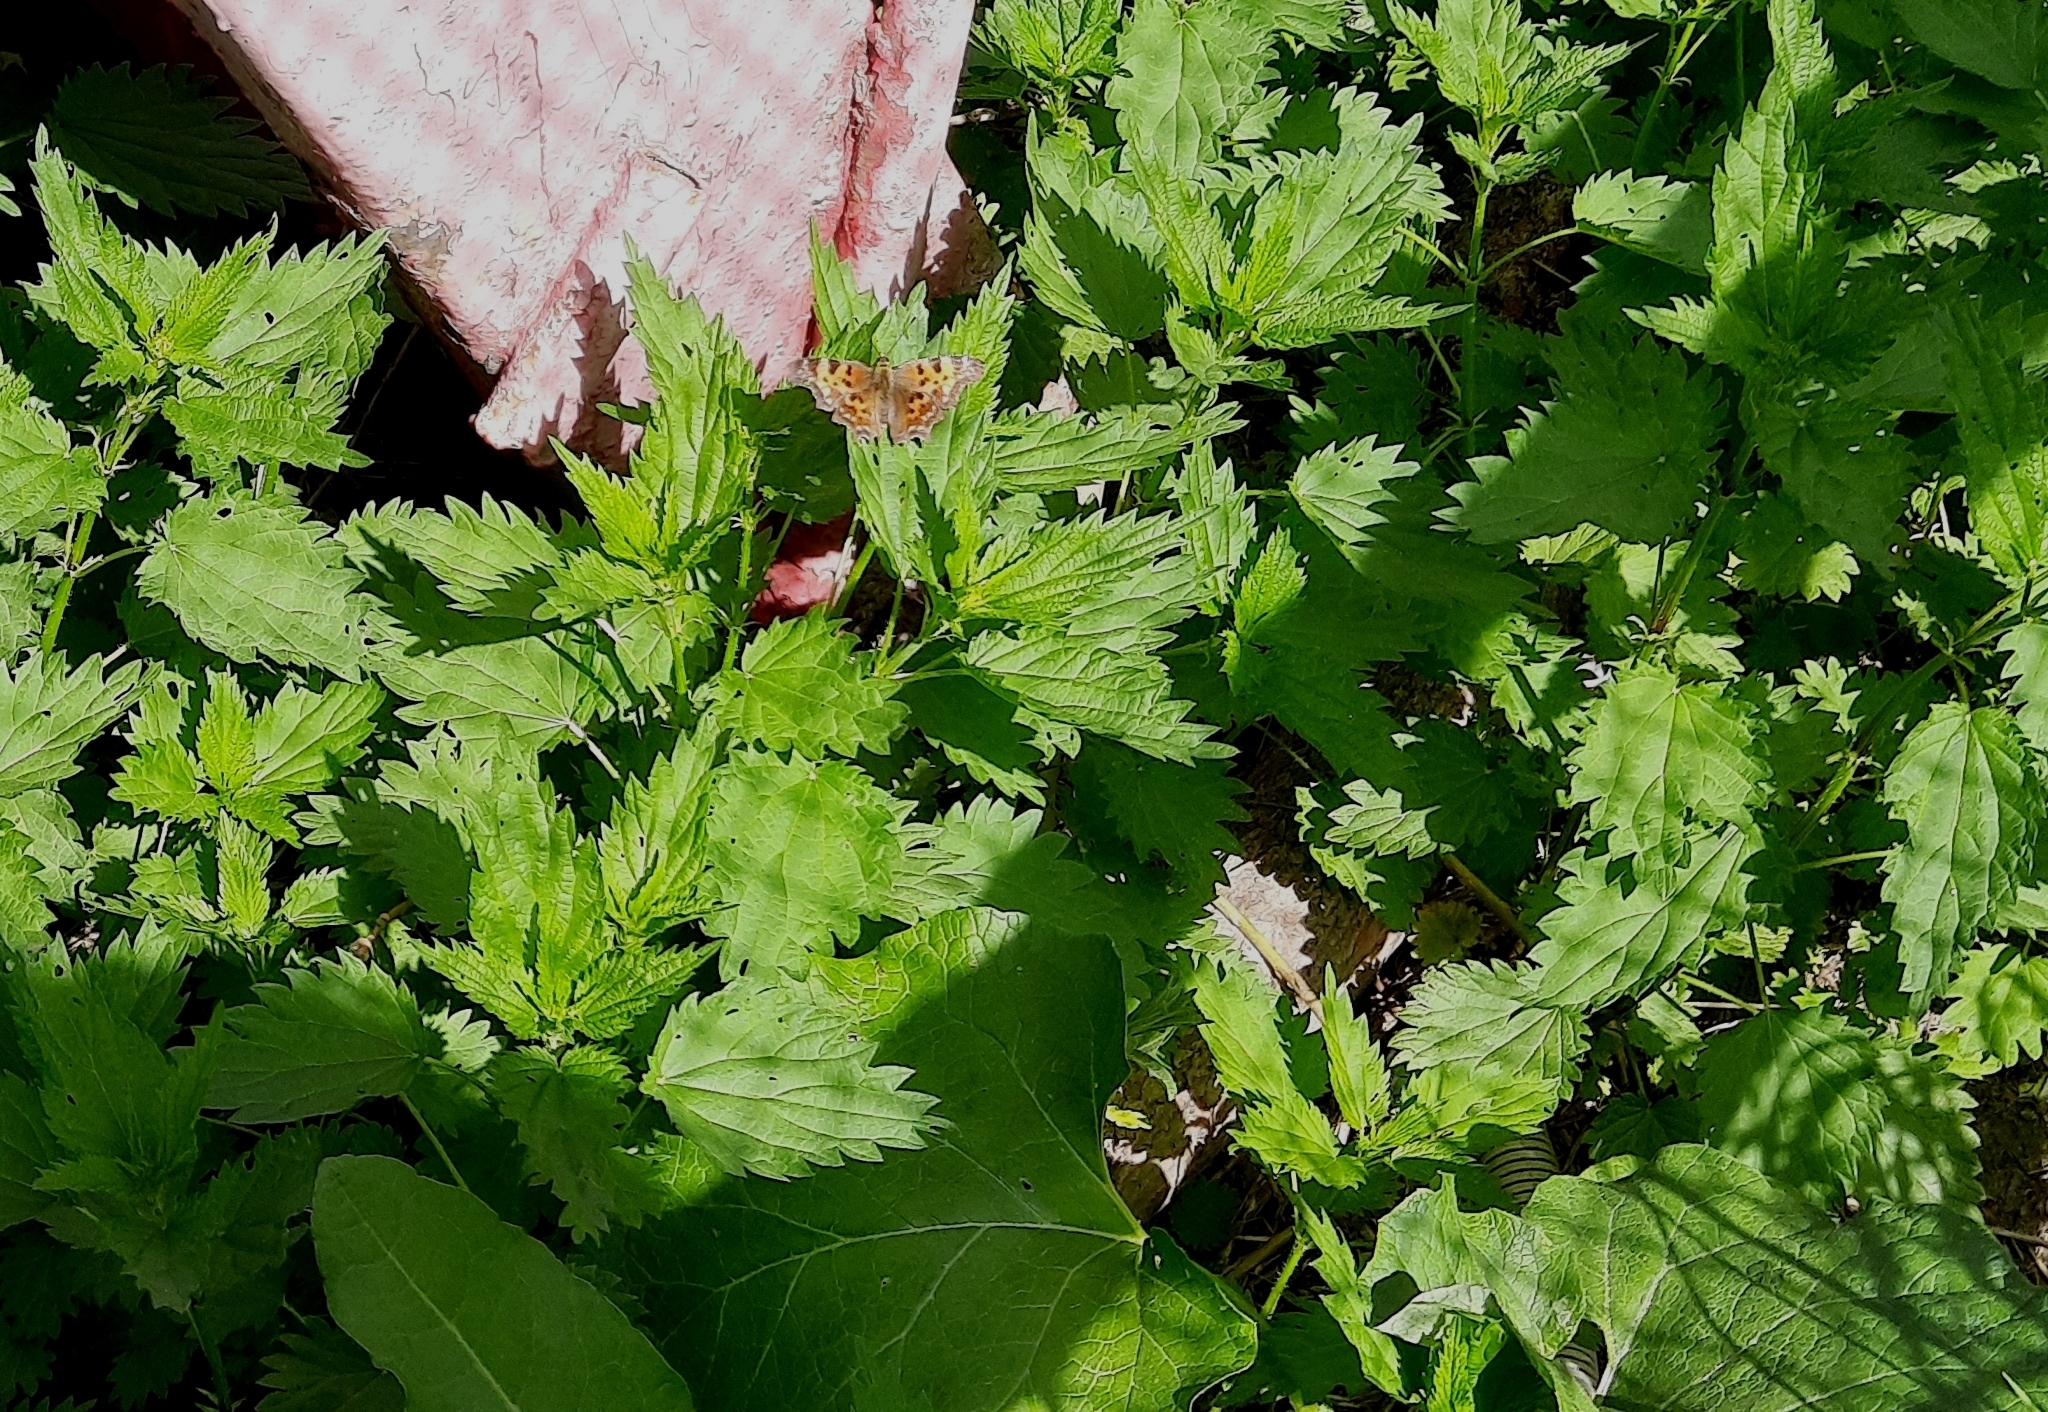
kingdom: Animalia
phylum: Arthropoda
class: Insecta
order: Lepidoptera
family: Nymphalidae
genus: Polygonia
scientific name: Polygonia c-album
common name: Comma
